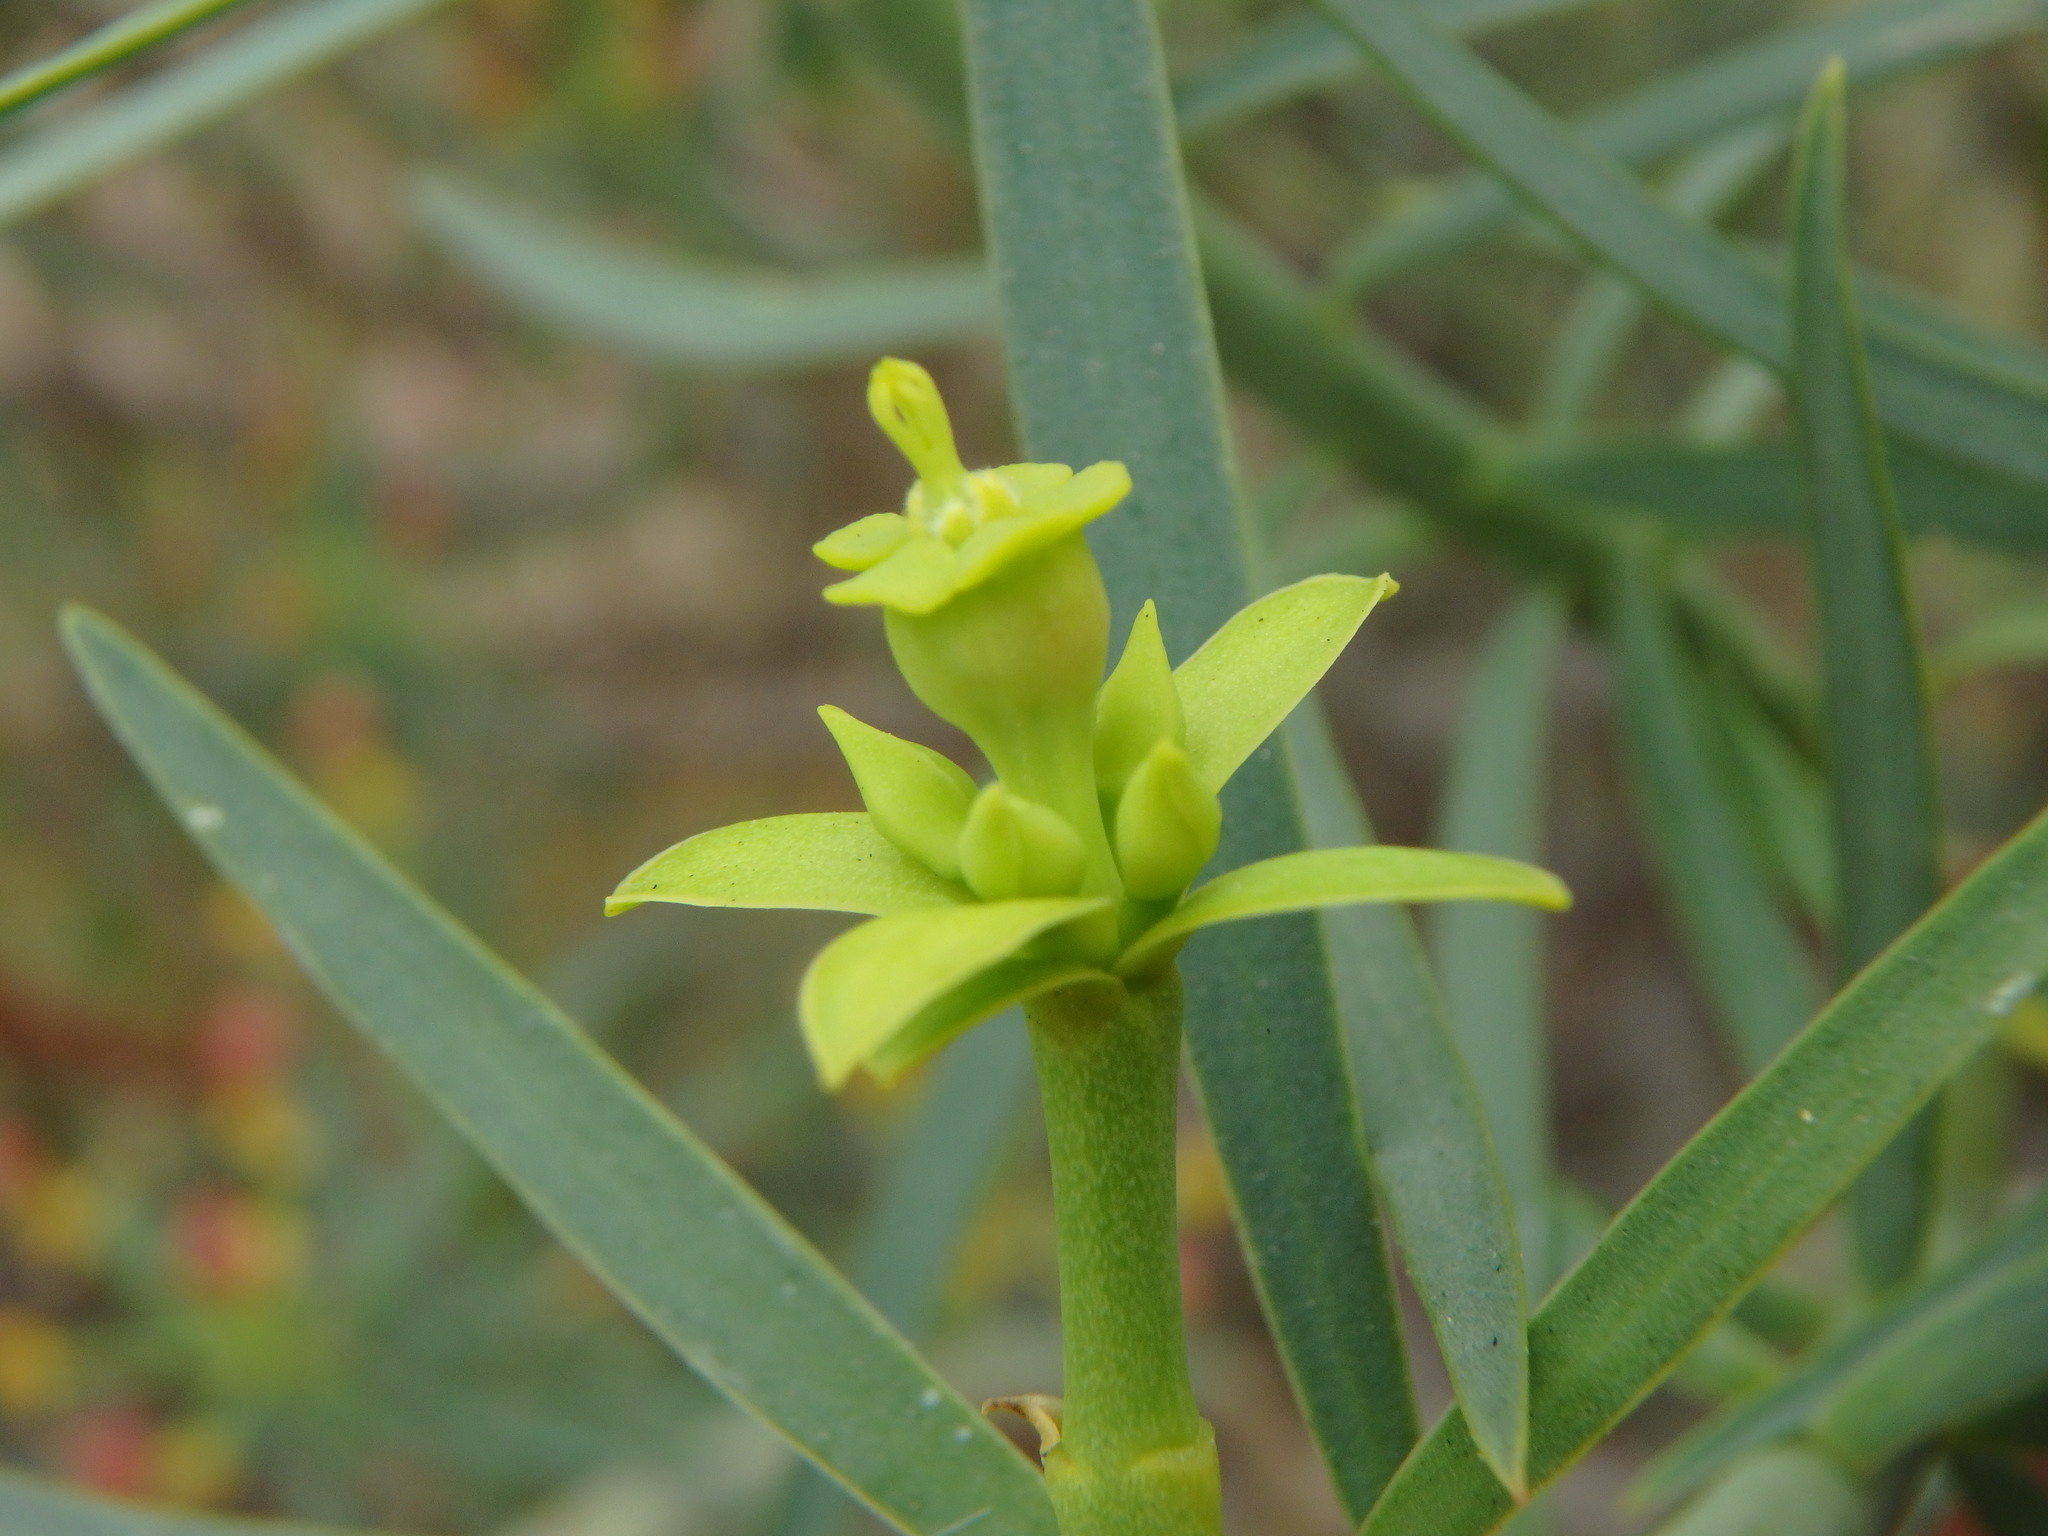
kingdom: Plantae
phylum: Tracheophyta
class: Magnoliopsida
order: Malpighiales
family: Euphorbiaceae
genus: Euphorbia
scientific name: Euphorbia lamarckii
